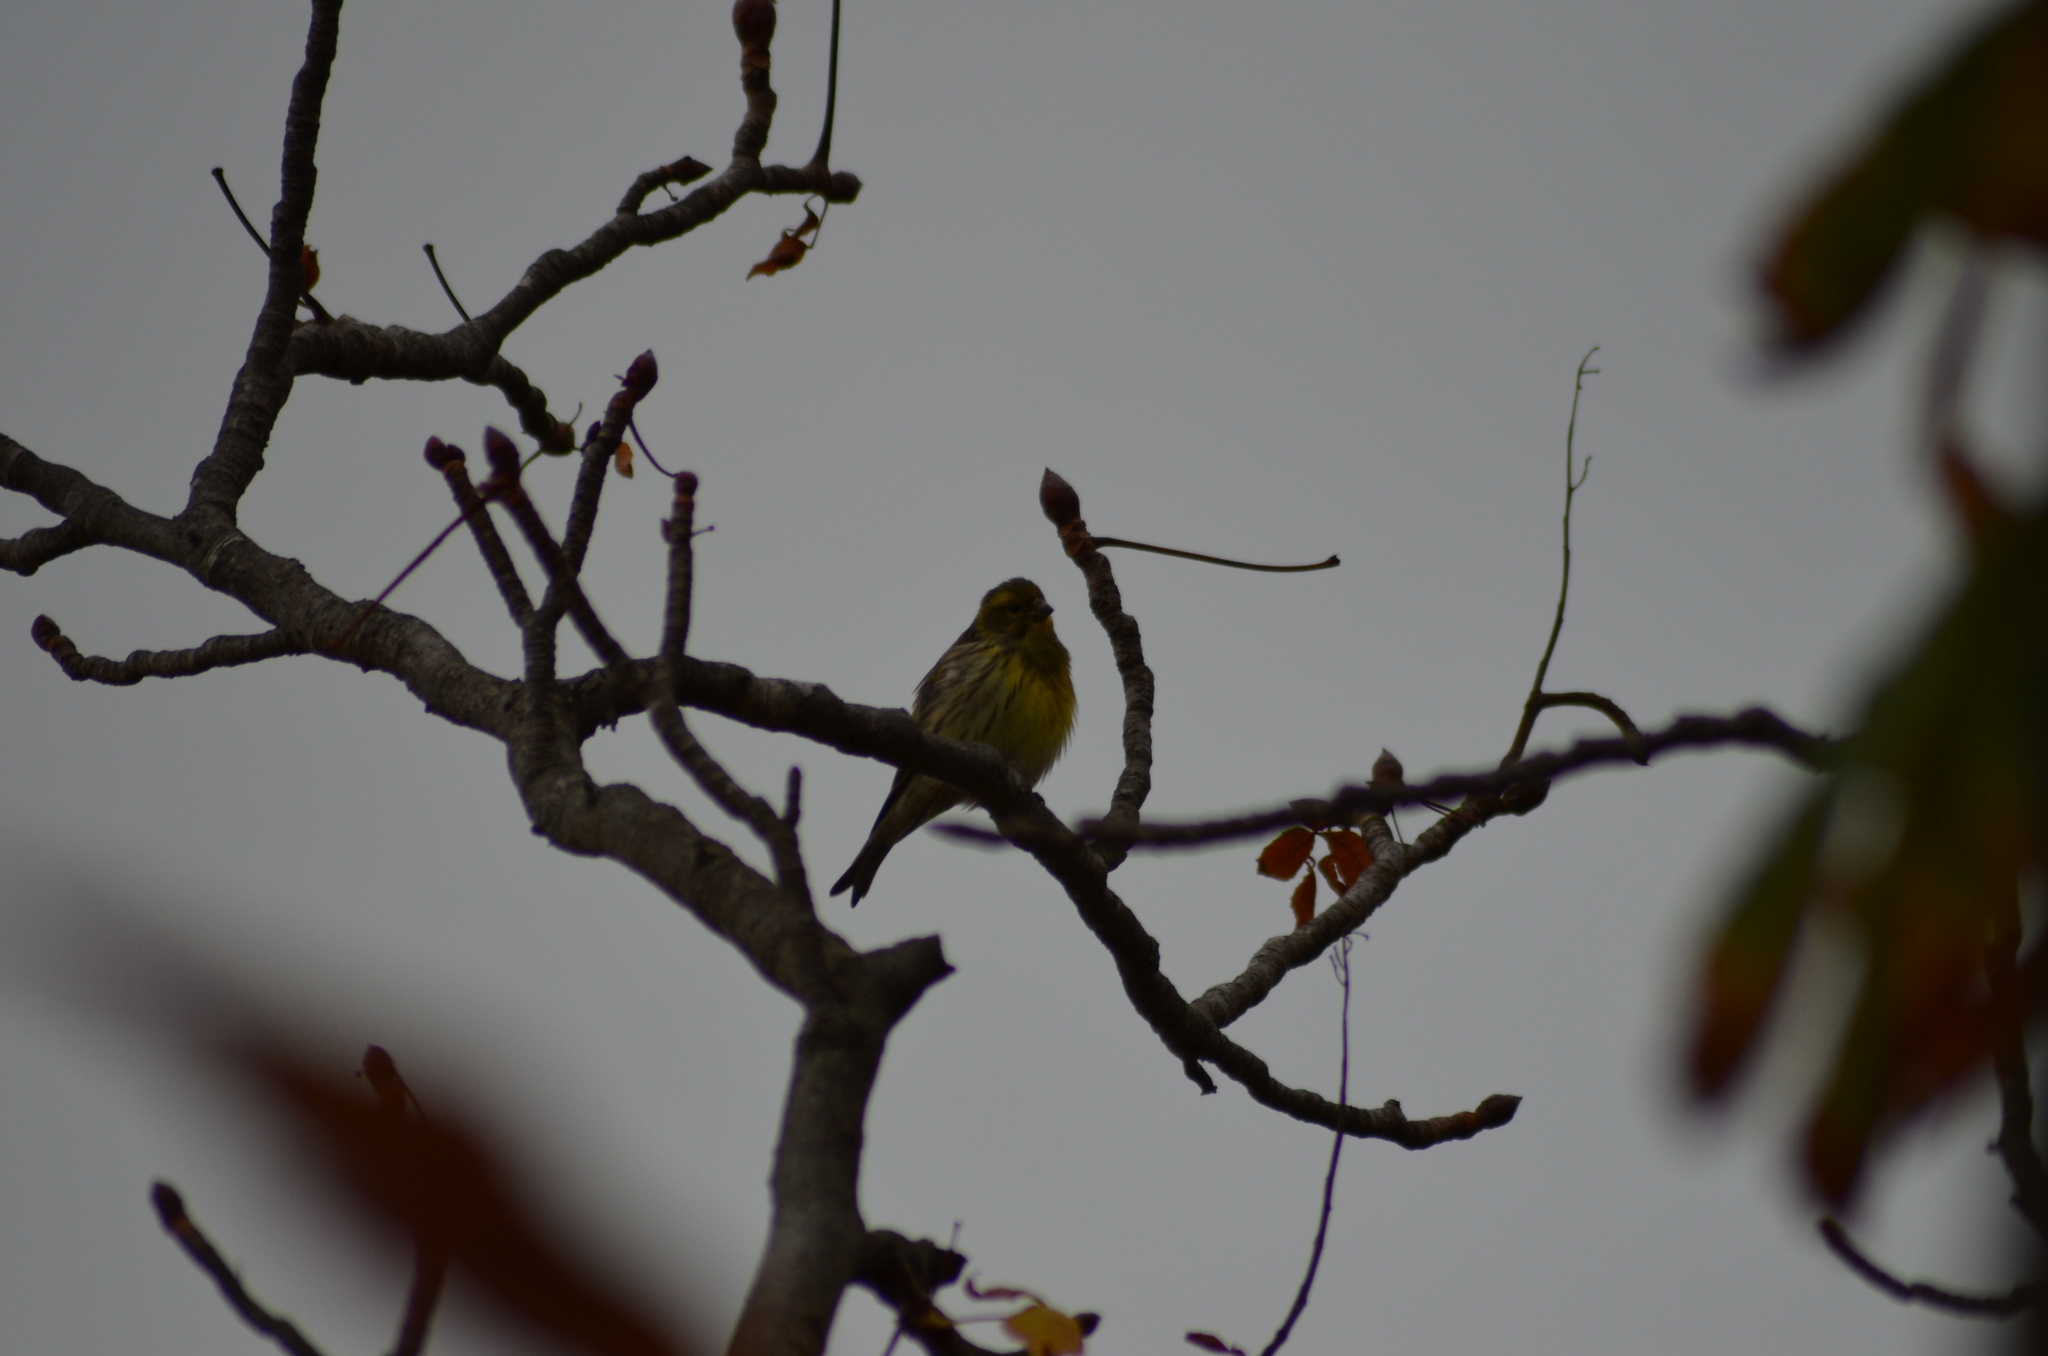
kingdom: Animalia
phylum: Chordata
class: Aves
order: Passeriformes
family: Fringillidae
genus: Serinus
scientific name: Serinus serinus
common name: European serin
